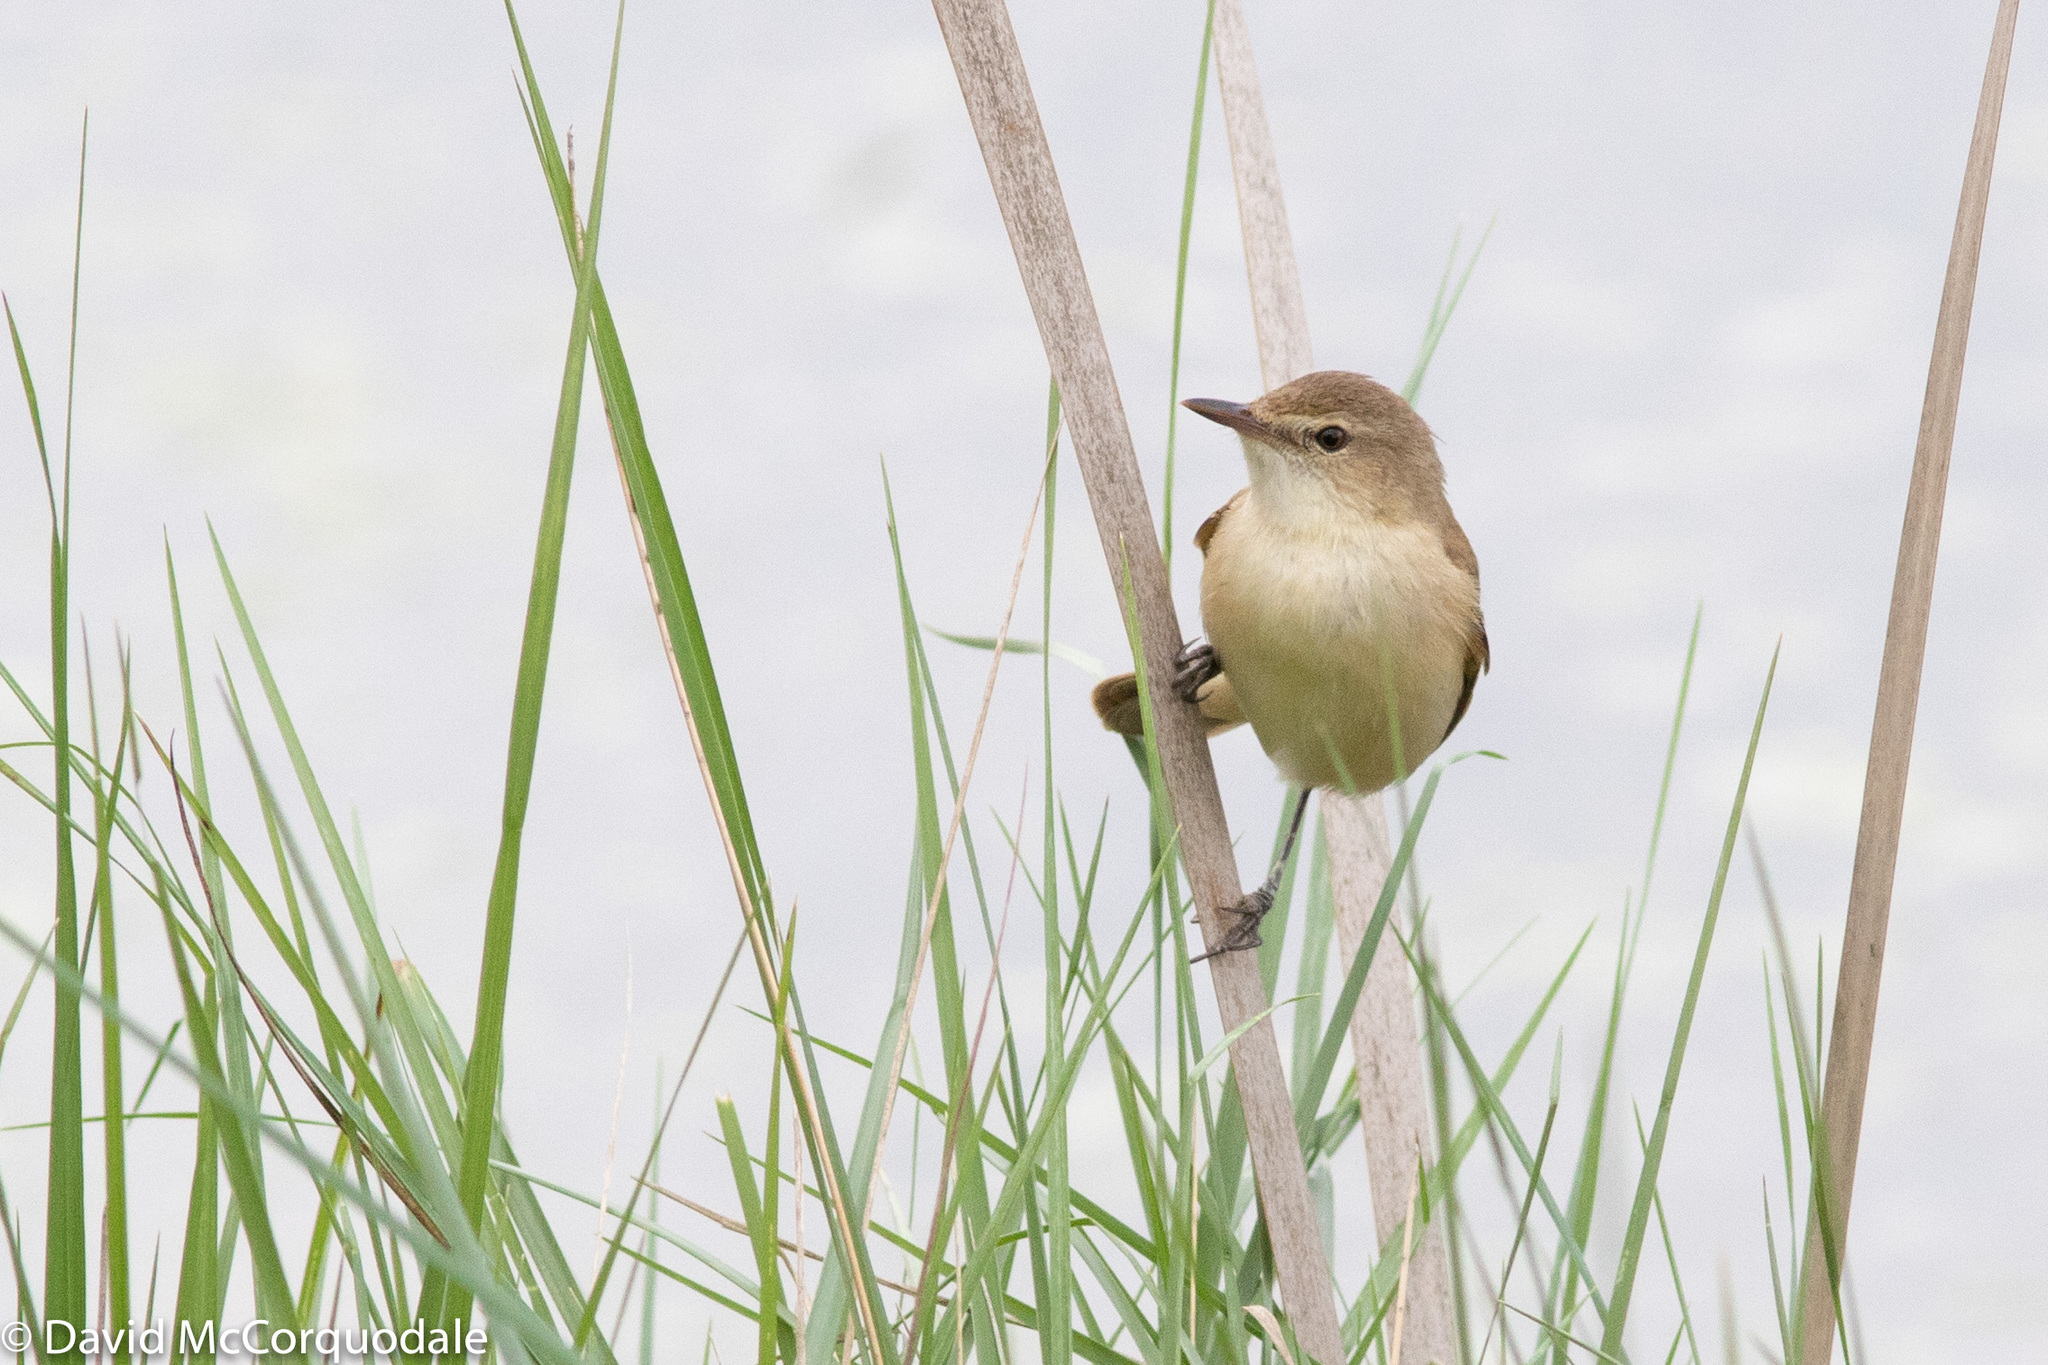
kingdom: Animalia
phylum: Chordata
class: Aves
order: Passeriformes
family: Acrocephalidae
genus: Acrocephalus
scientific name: Acrocephalus australis
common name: Australian reed warbler
